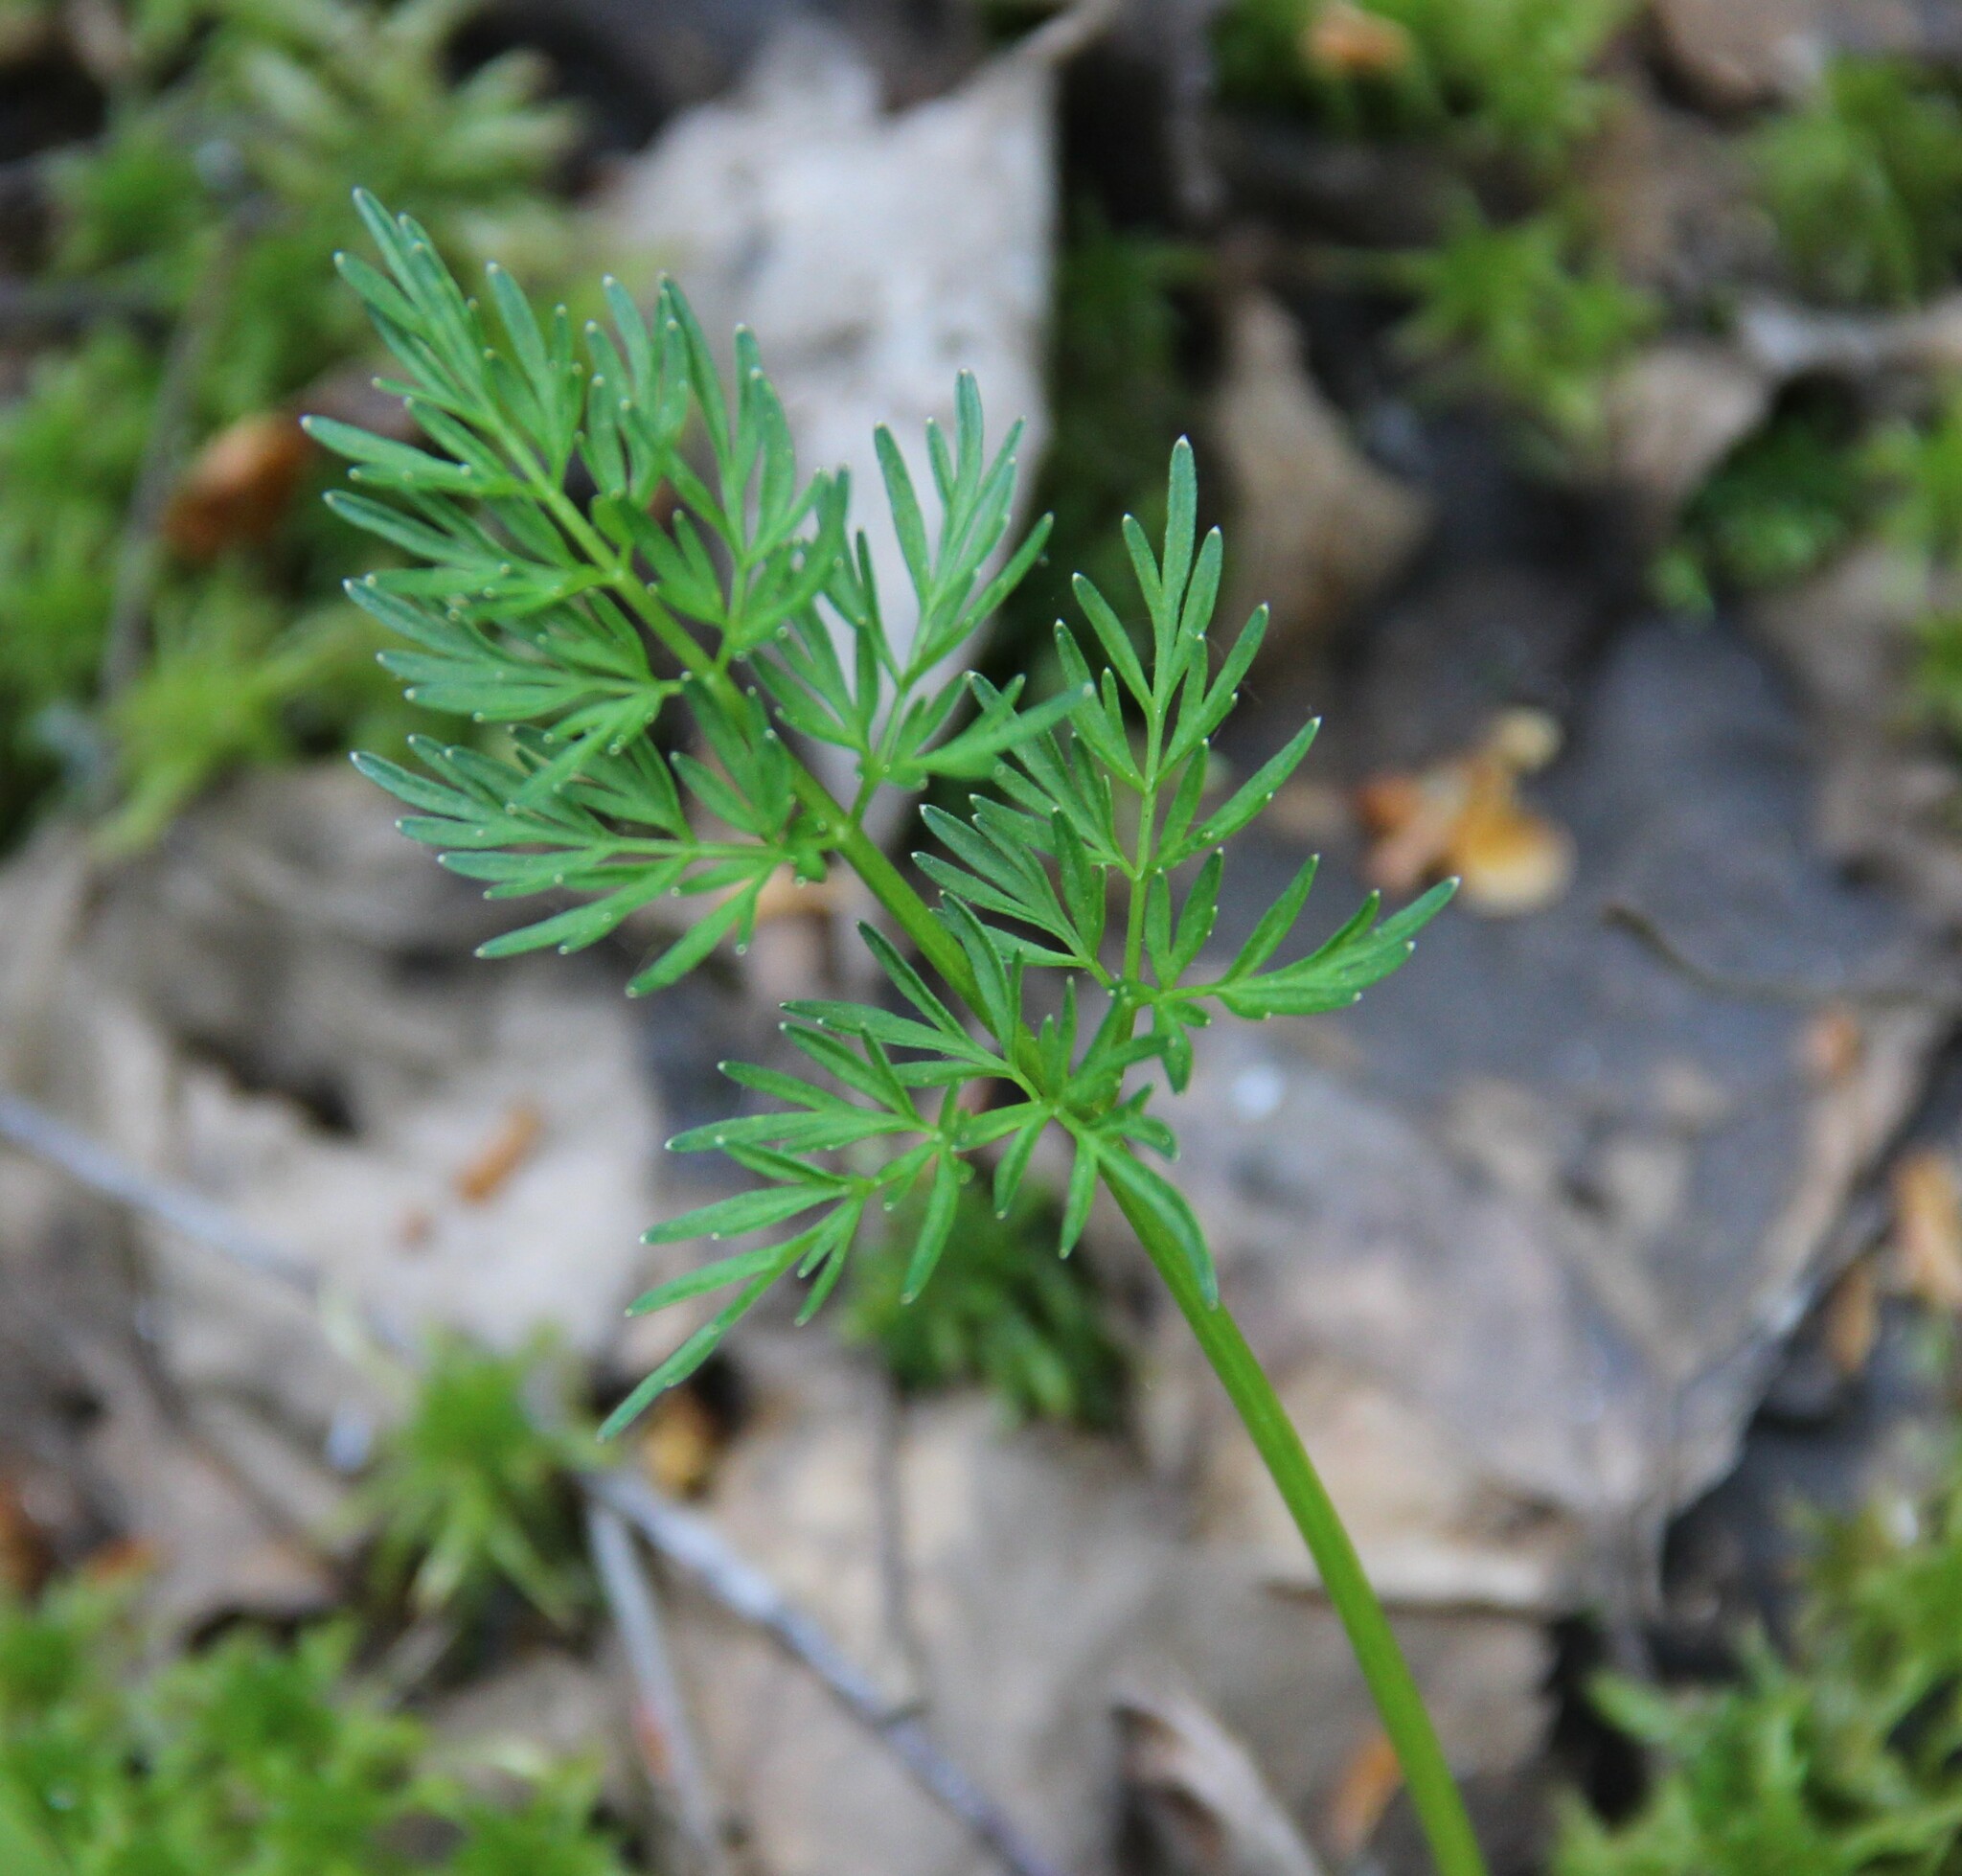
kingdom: Plantae
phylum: Tracheophyta
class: Magnoliopsida
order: Apiales
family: Apiaceae
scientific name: Apiaceae
